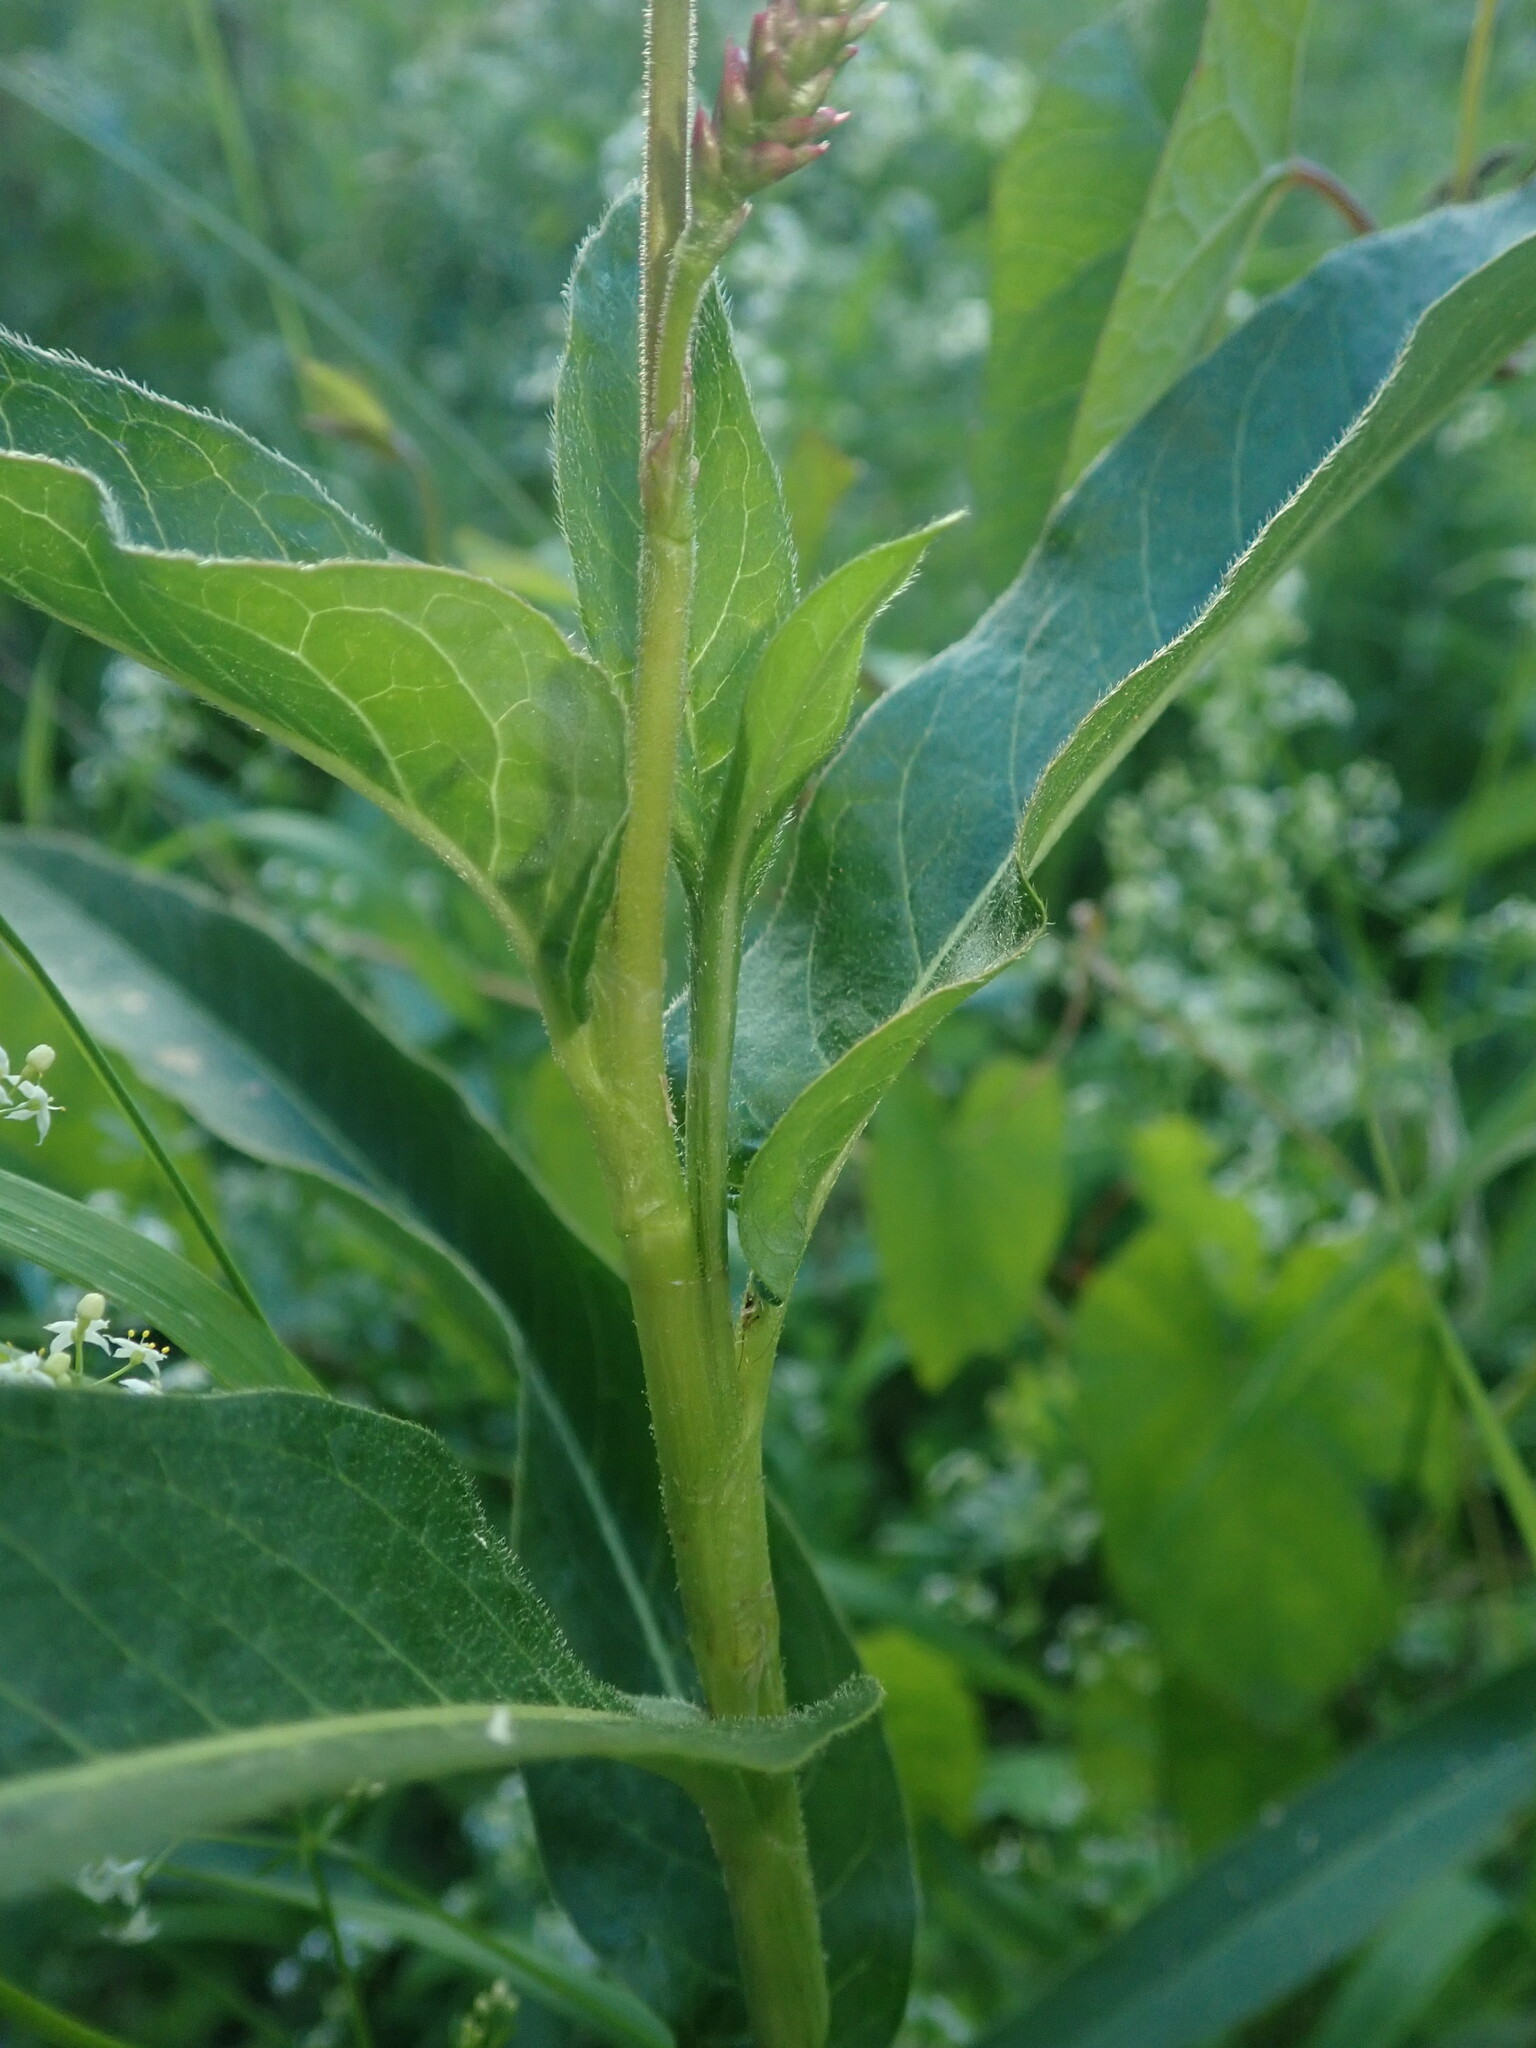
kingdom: Plantae
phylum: Tracheophyta
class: Magnoliopsida
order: Caryophyllales
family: Polygonaceae
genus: Persicaria
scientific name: Persicaria amphibia
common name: Amphibious bistort
